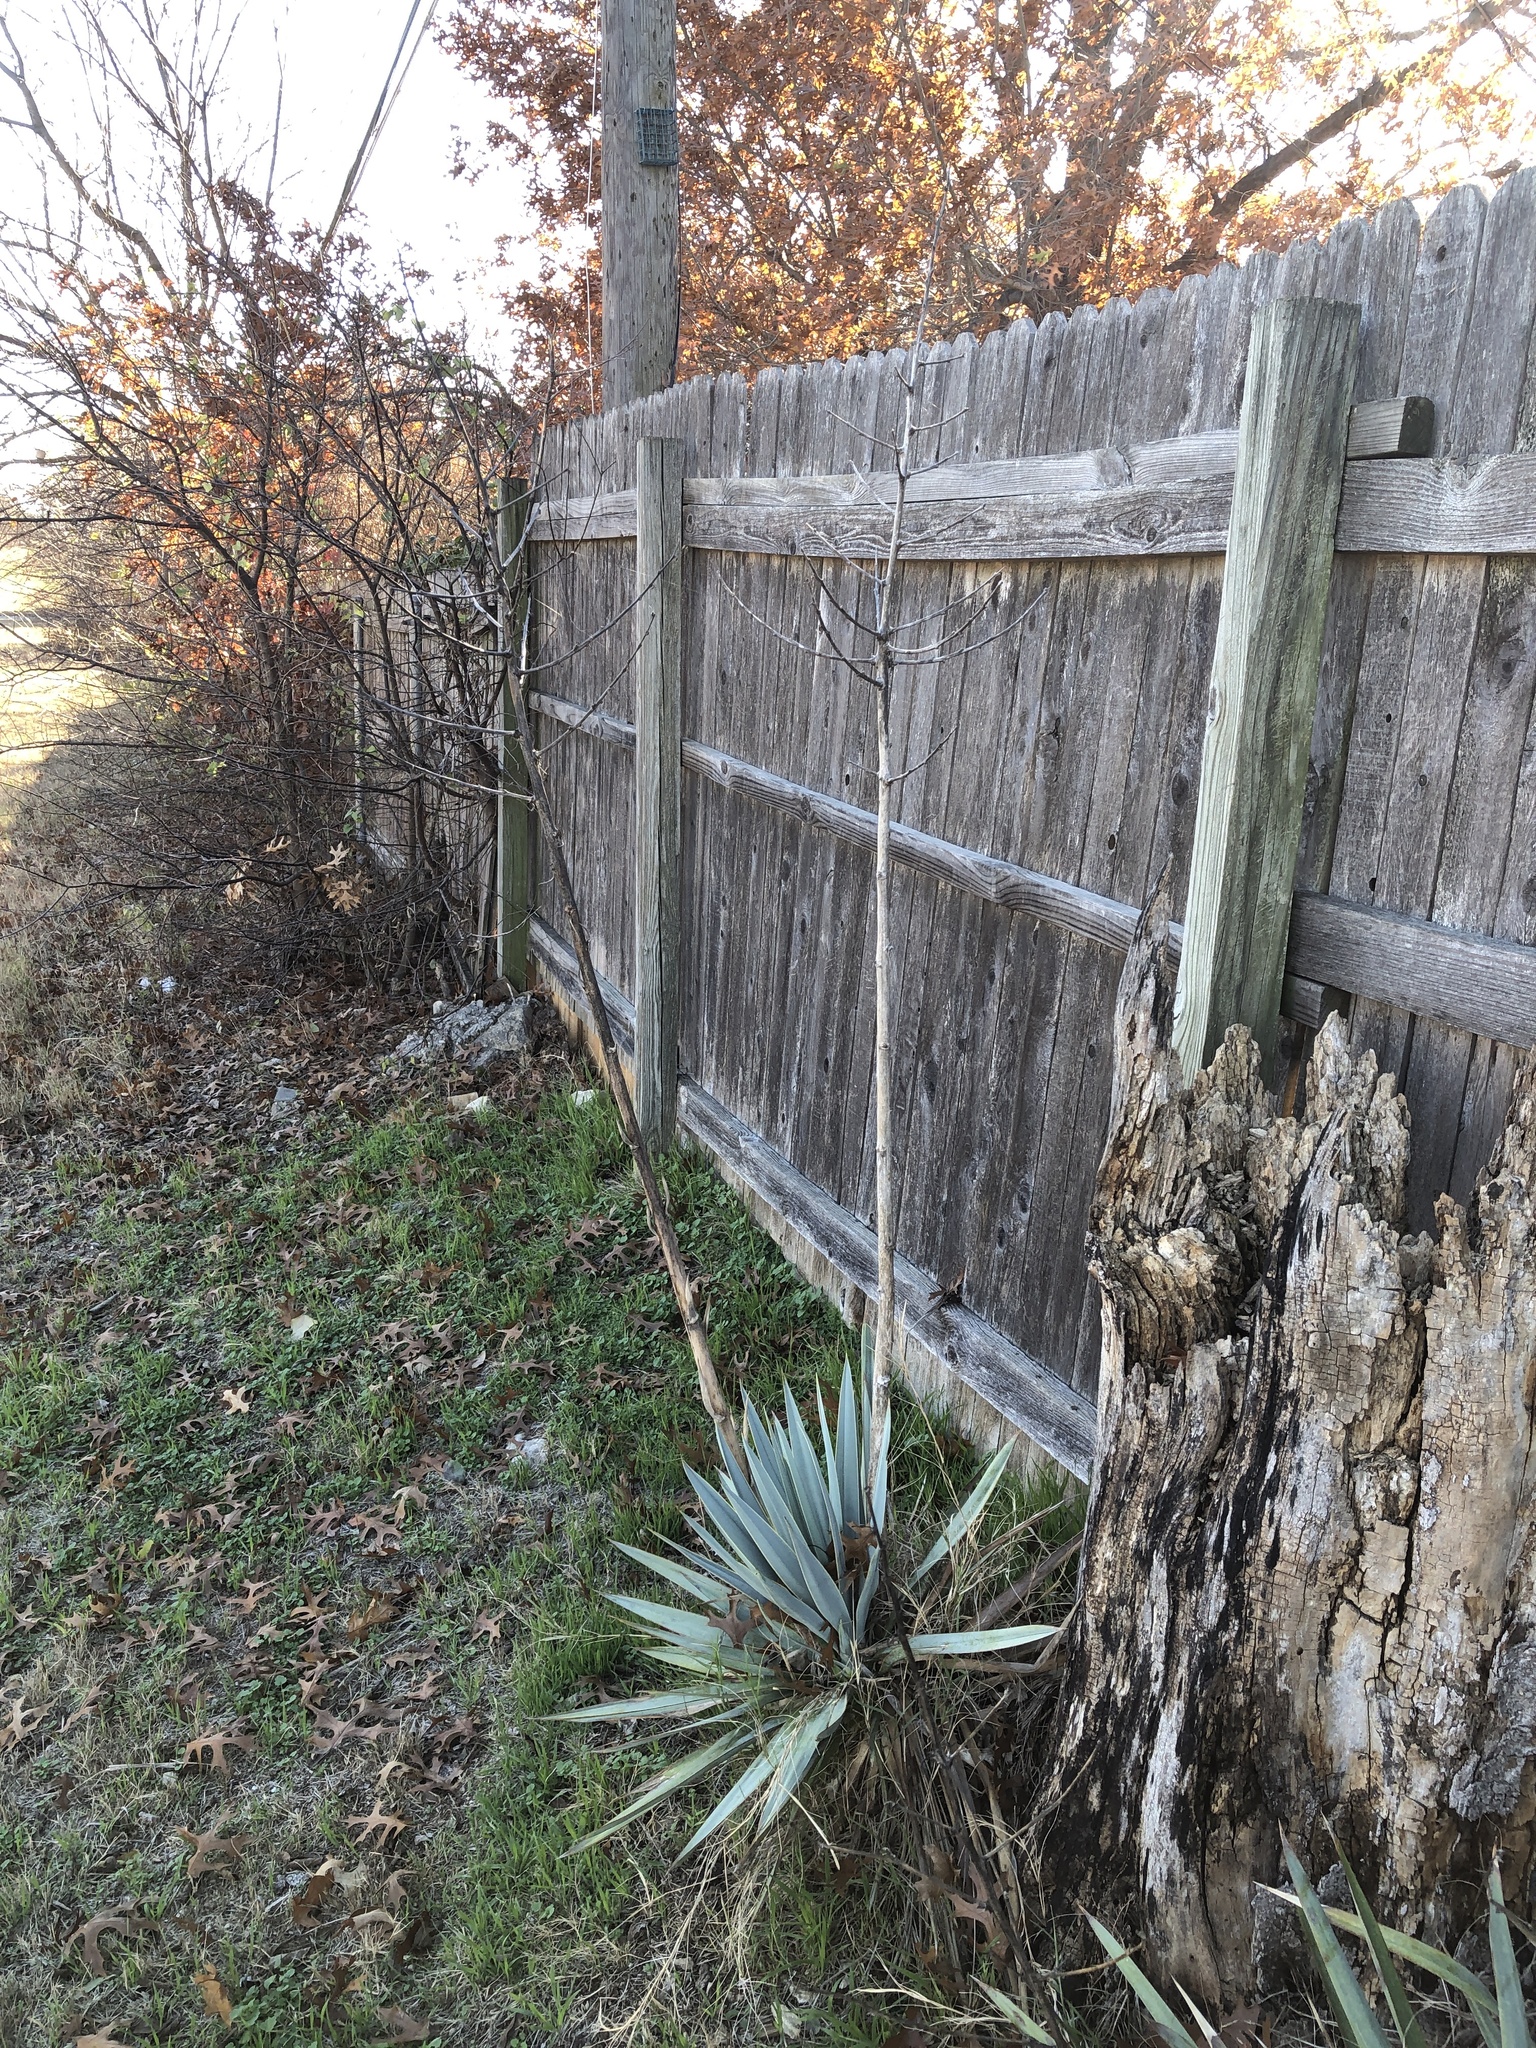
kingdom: Plantae
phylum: Tracheophyta
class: Liliopsida
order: Asparagales
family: Asparagaceae
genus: Yucca
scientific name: Yucca pallida
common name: Pale leaf yucca
